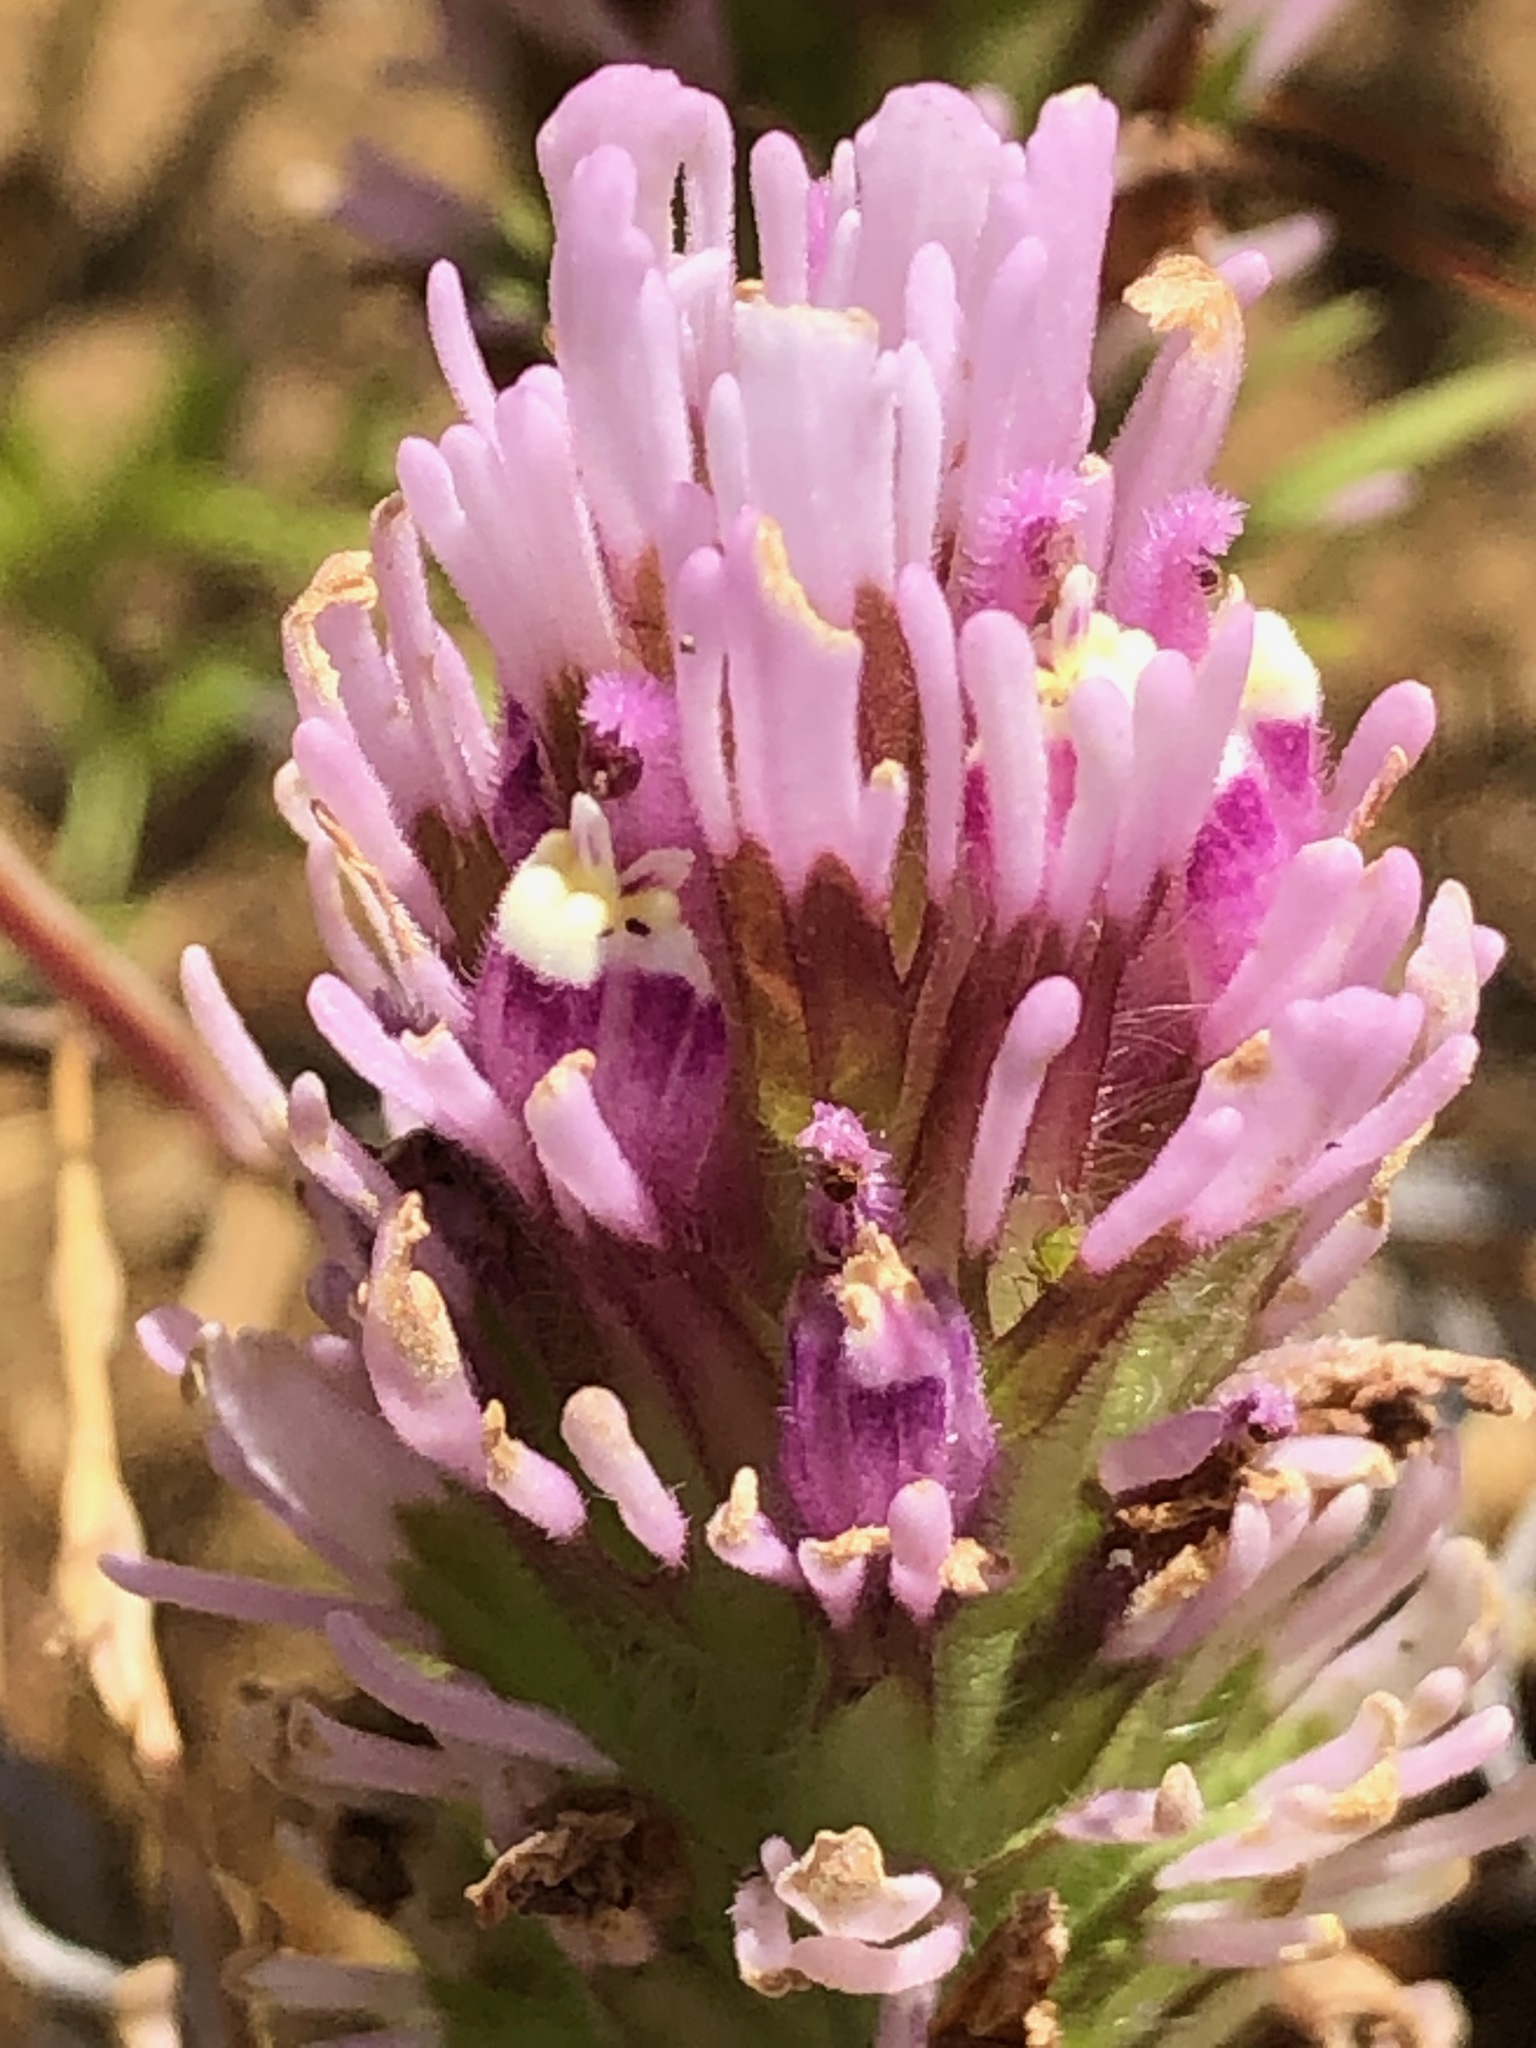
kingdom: Plantae
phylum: Tracheophyta
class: Magnoliopsida
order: Lamiales
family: Orobanchaceae
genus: Castilleja
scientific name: Castilleja exserta
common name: Purple owl-clover
